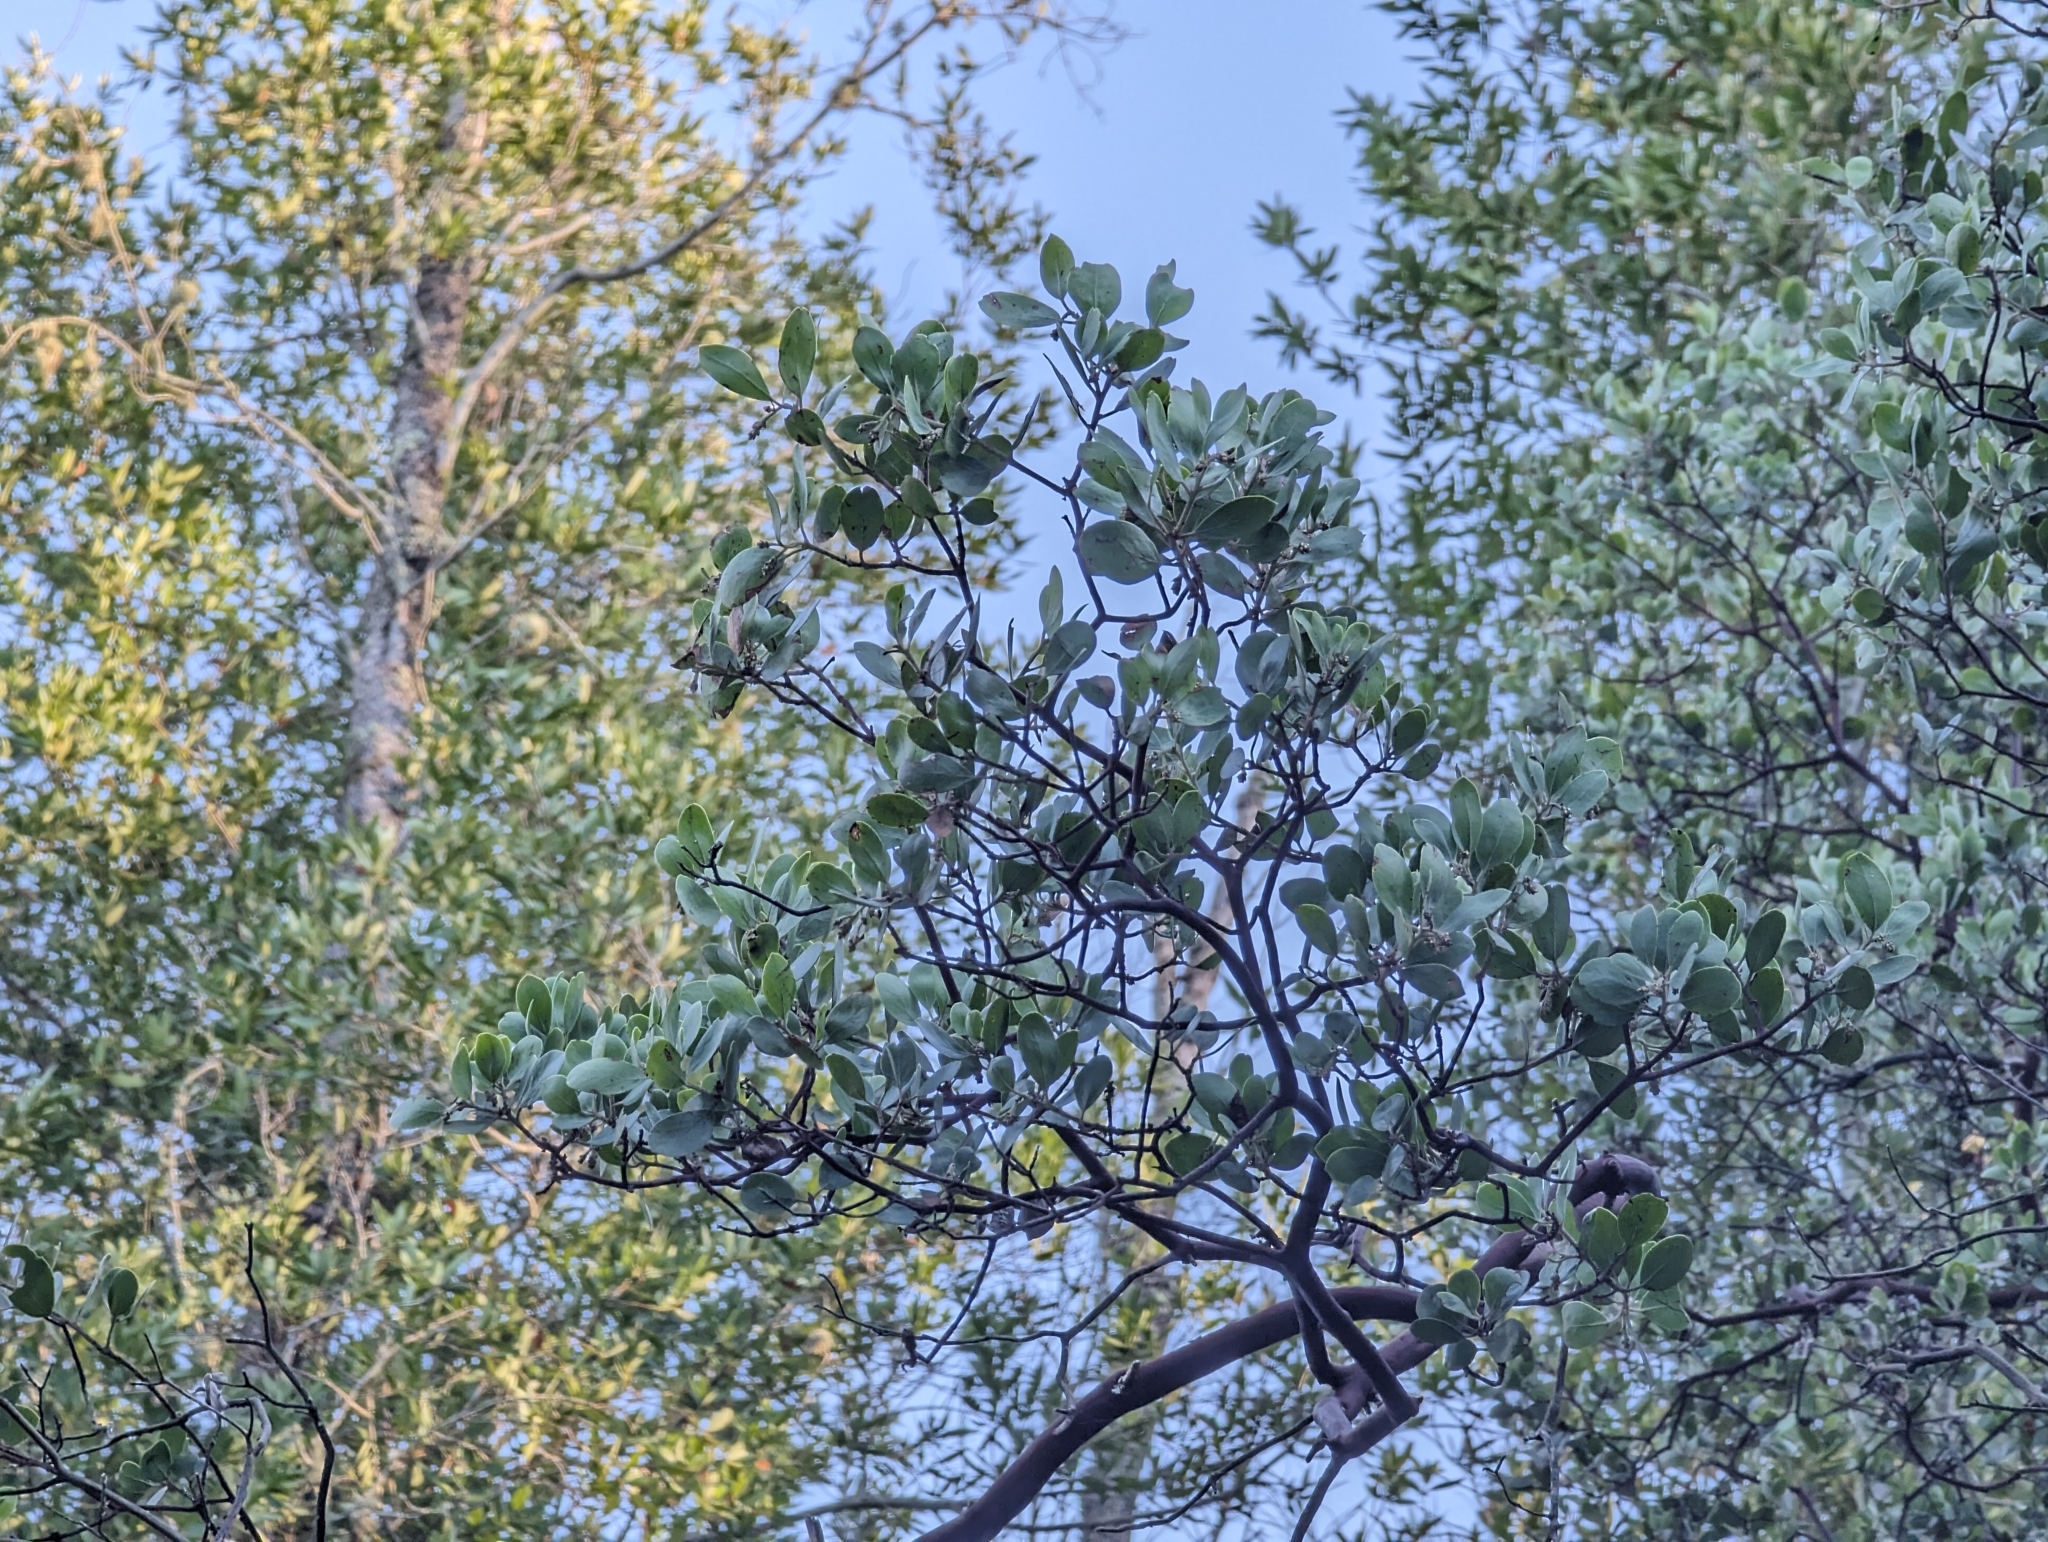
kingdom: Plantae
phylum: Tracheophyta
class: Magnoliopsida
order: Ericales
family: Ericaceae
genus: Arctostaphylos
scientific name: Arctostaphylos manzanita
